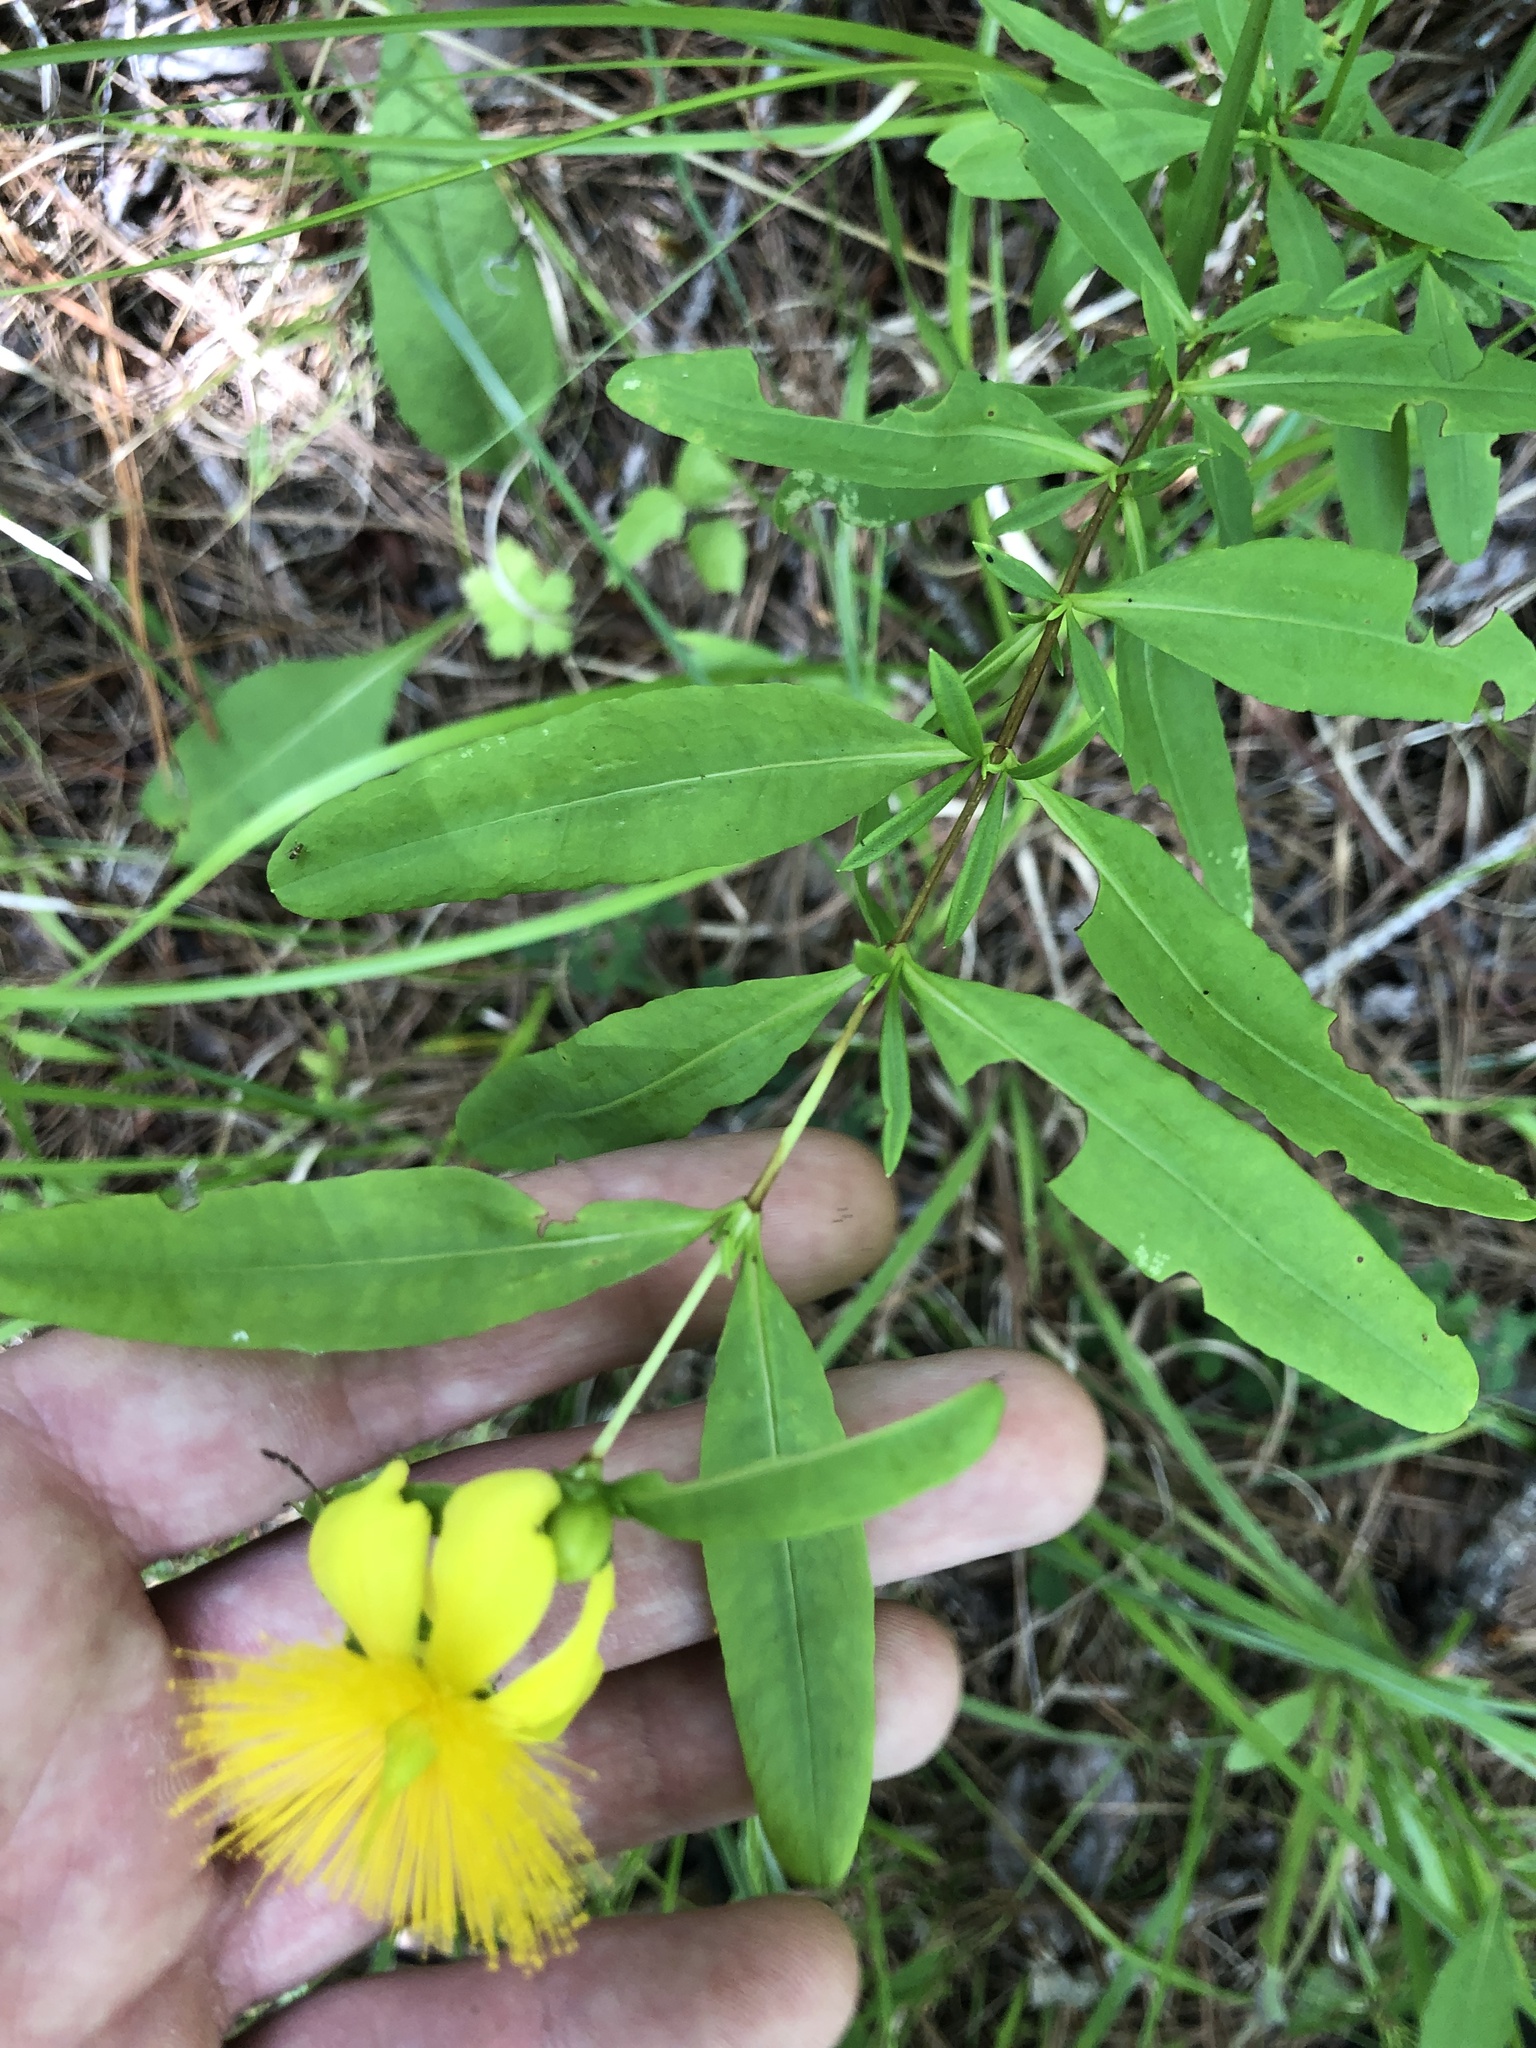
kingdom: Plantae
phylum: Tracheophyta
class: Magnoliopsida
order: Malpighiales
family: Hypericaceae
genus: Hypericum
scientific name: Hypericum frondosum
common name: Golden st. john's-wort
